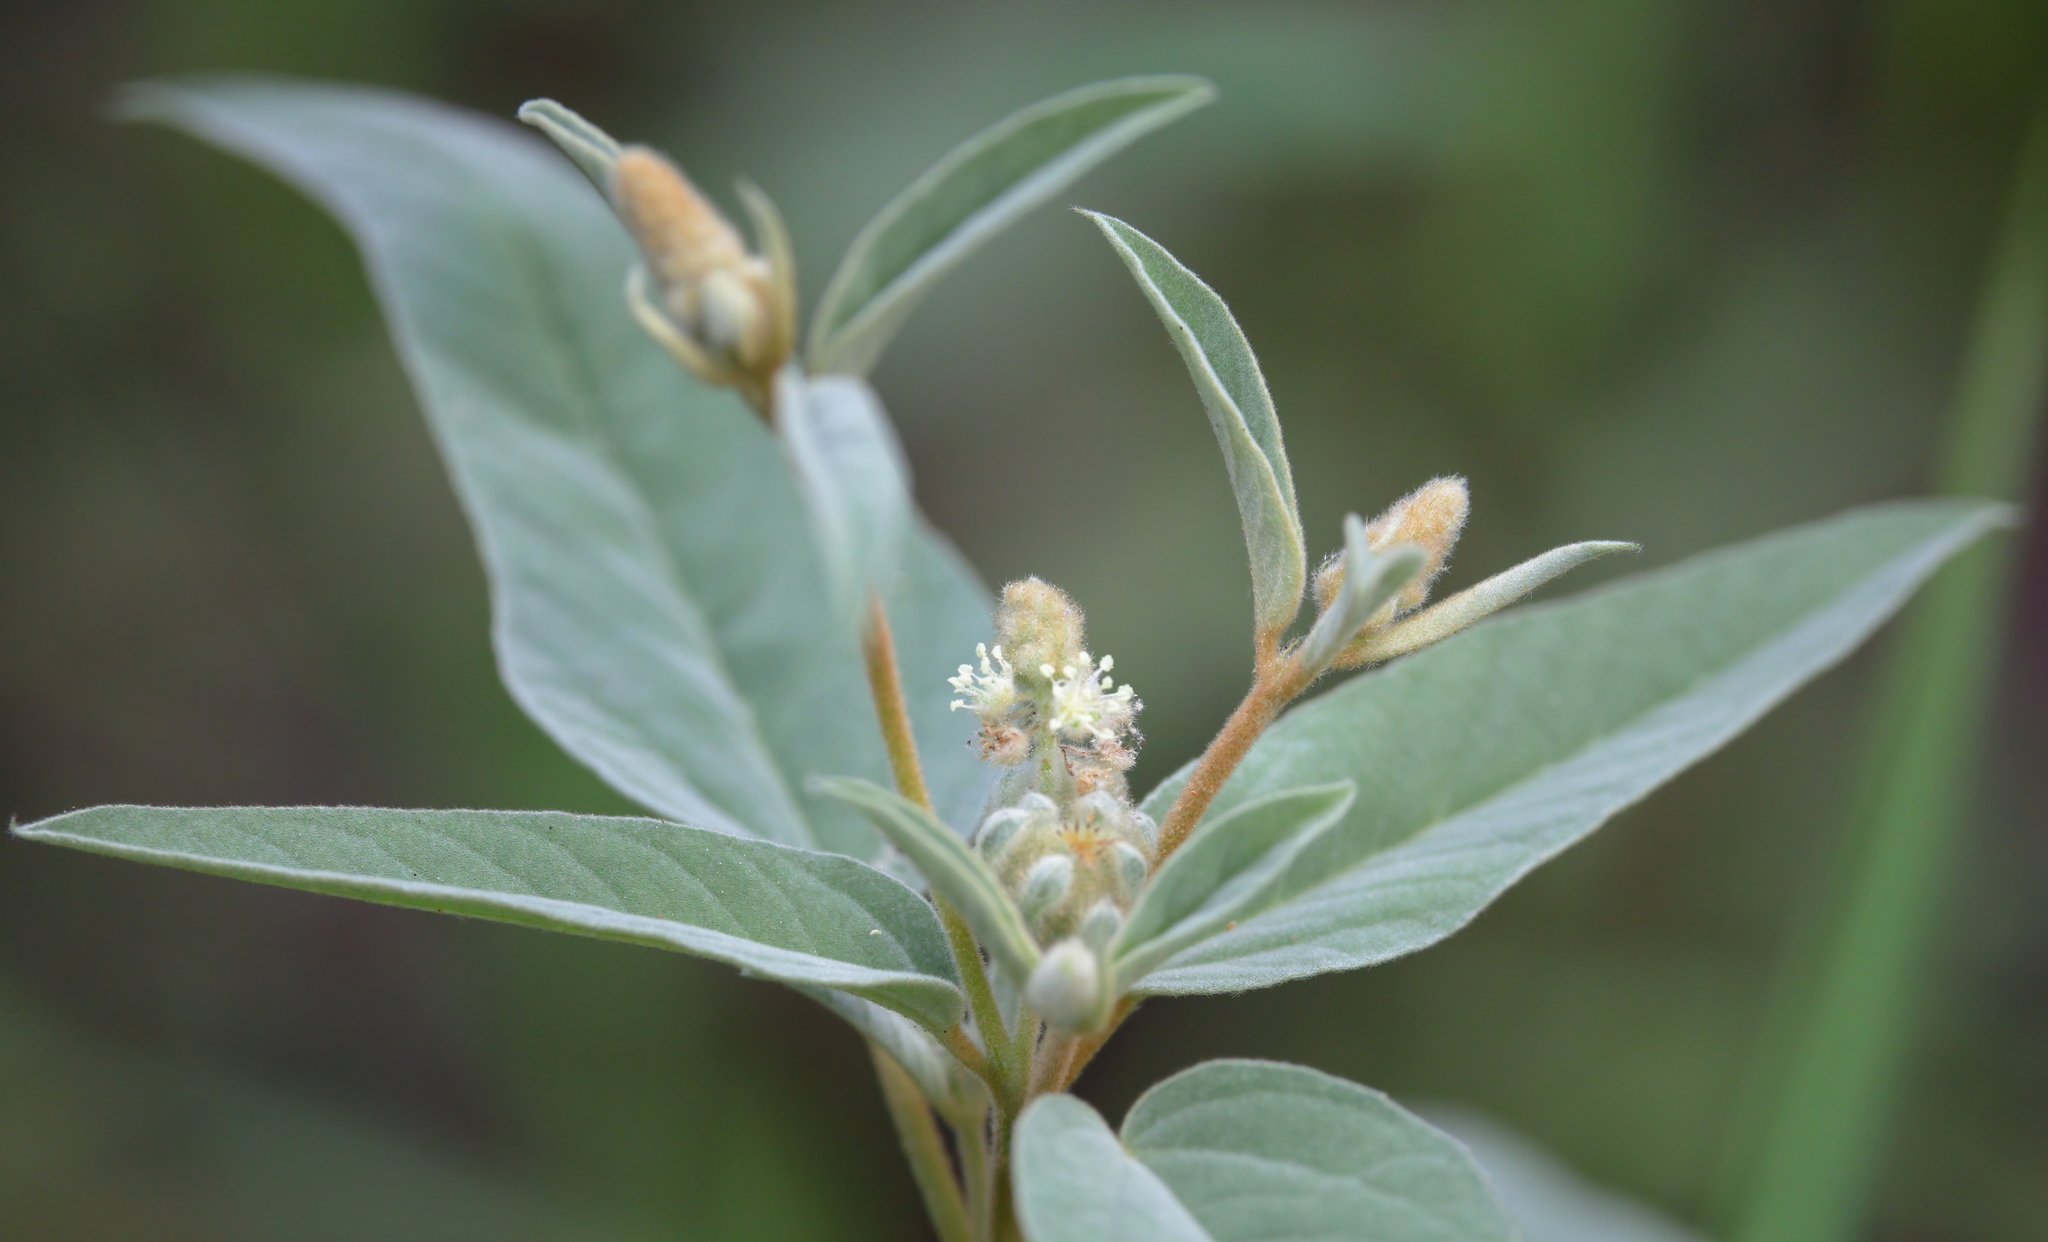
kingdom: Plantae
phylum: Tracheophyta
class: Magnoliopsida
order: Malpighiales
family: Euphorbiaceae
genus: Croton
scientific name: Croton lindheimeri
